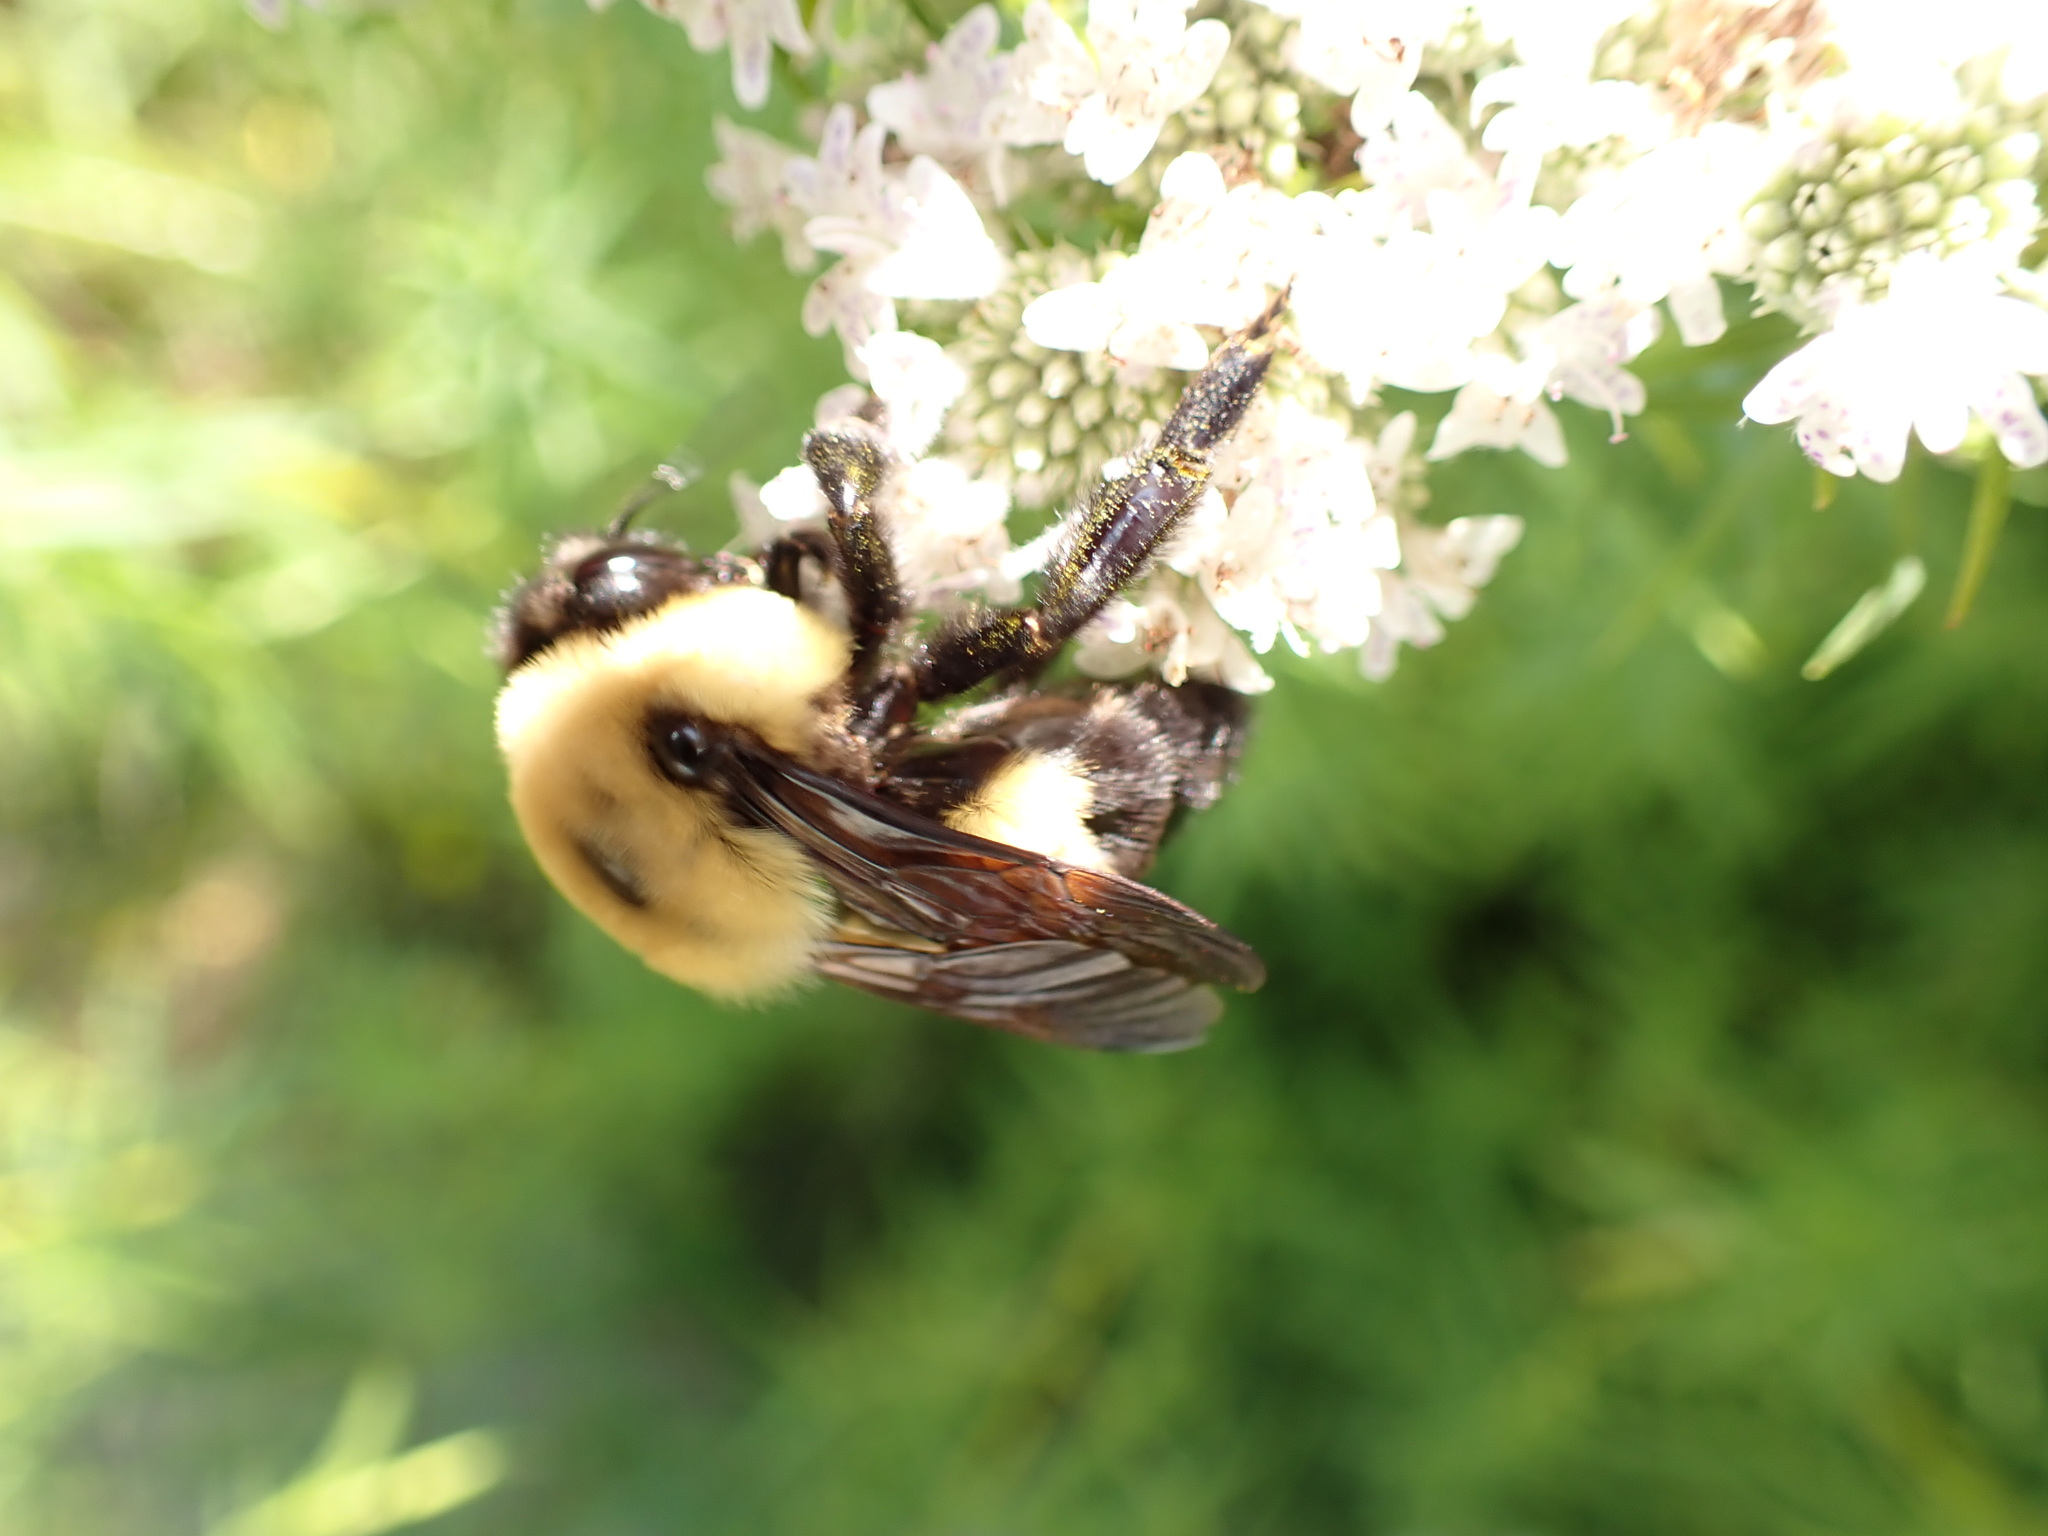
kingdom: Animalia
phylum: Arthropoda
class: Insecta
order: Hymenoptera
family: Apidae
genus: Bombus
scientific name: Bombus griseocollis
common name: Brown-belted bumble bee
